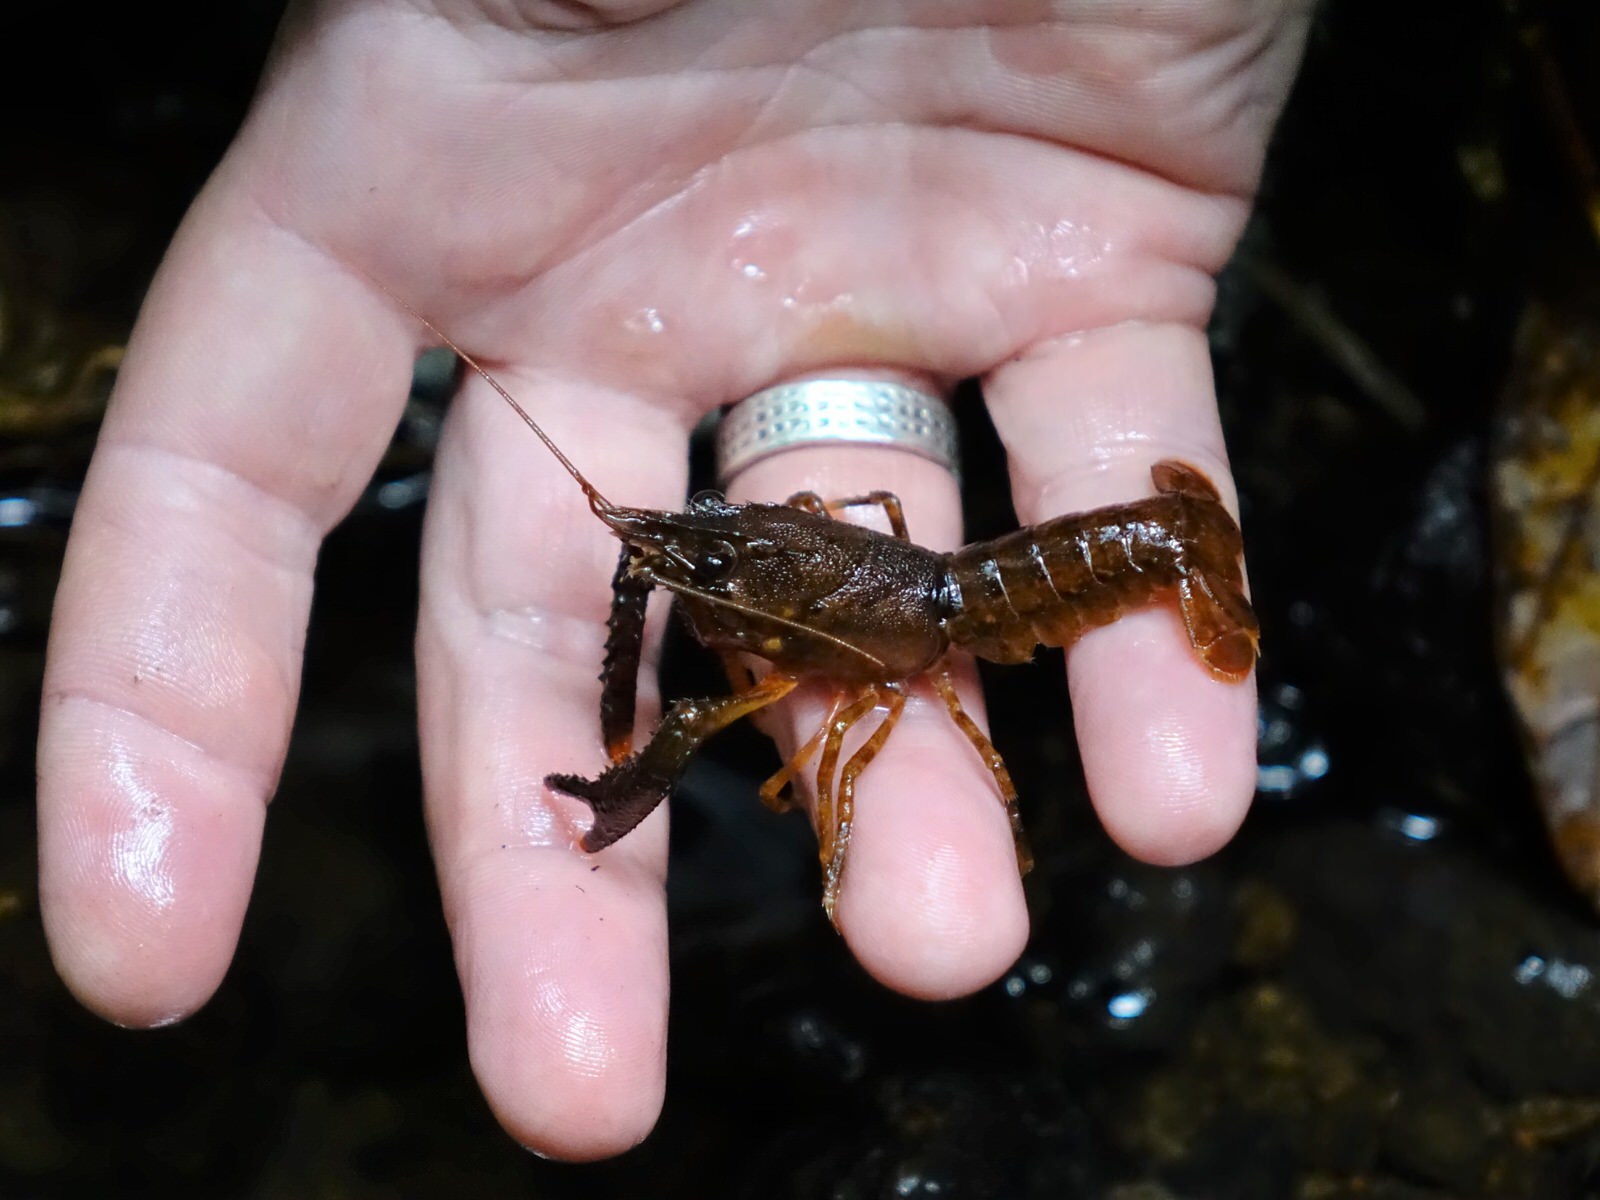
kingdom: Animalia
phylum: Arthropoda
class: Malacostraca
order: Decapoda
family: Parastacidae
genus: Paranephrops
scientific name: Paranephrops planifrons
